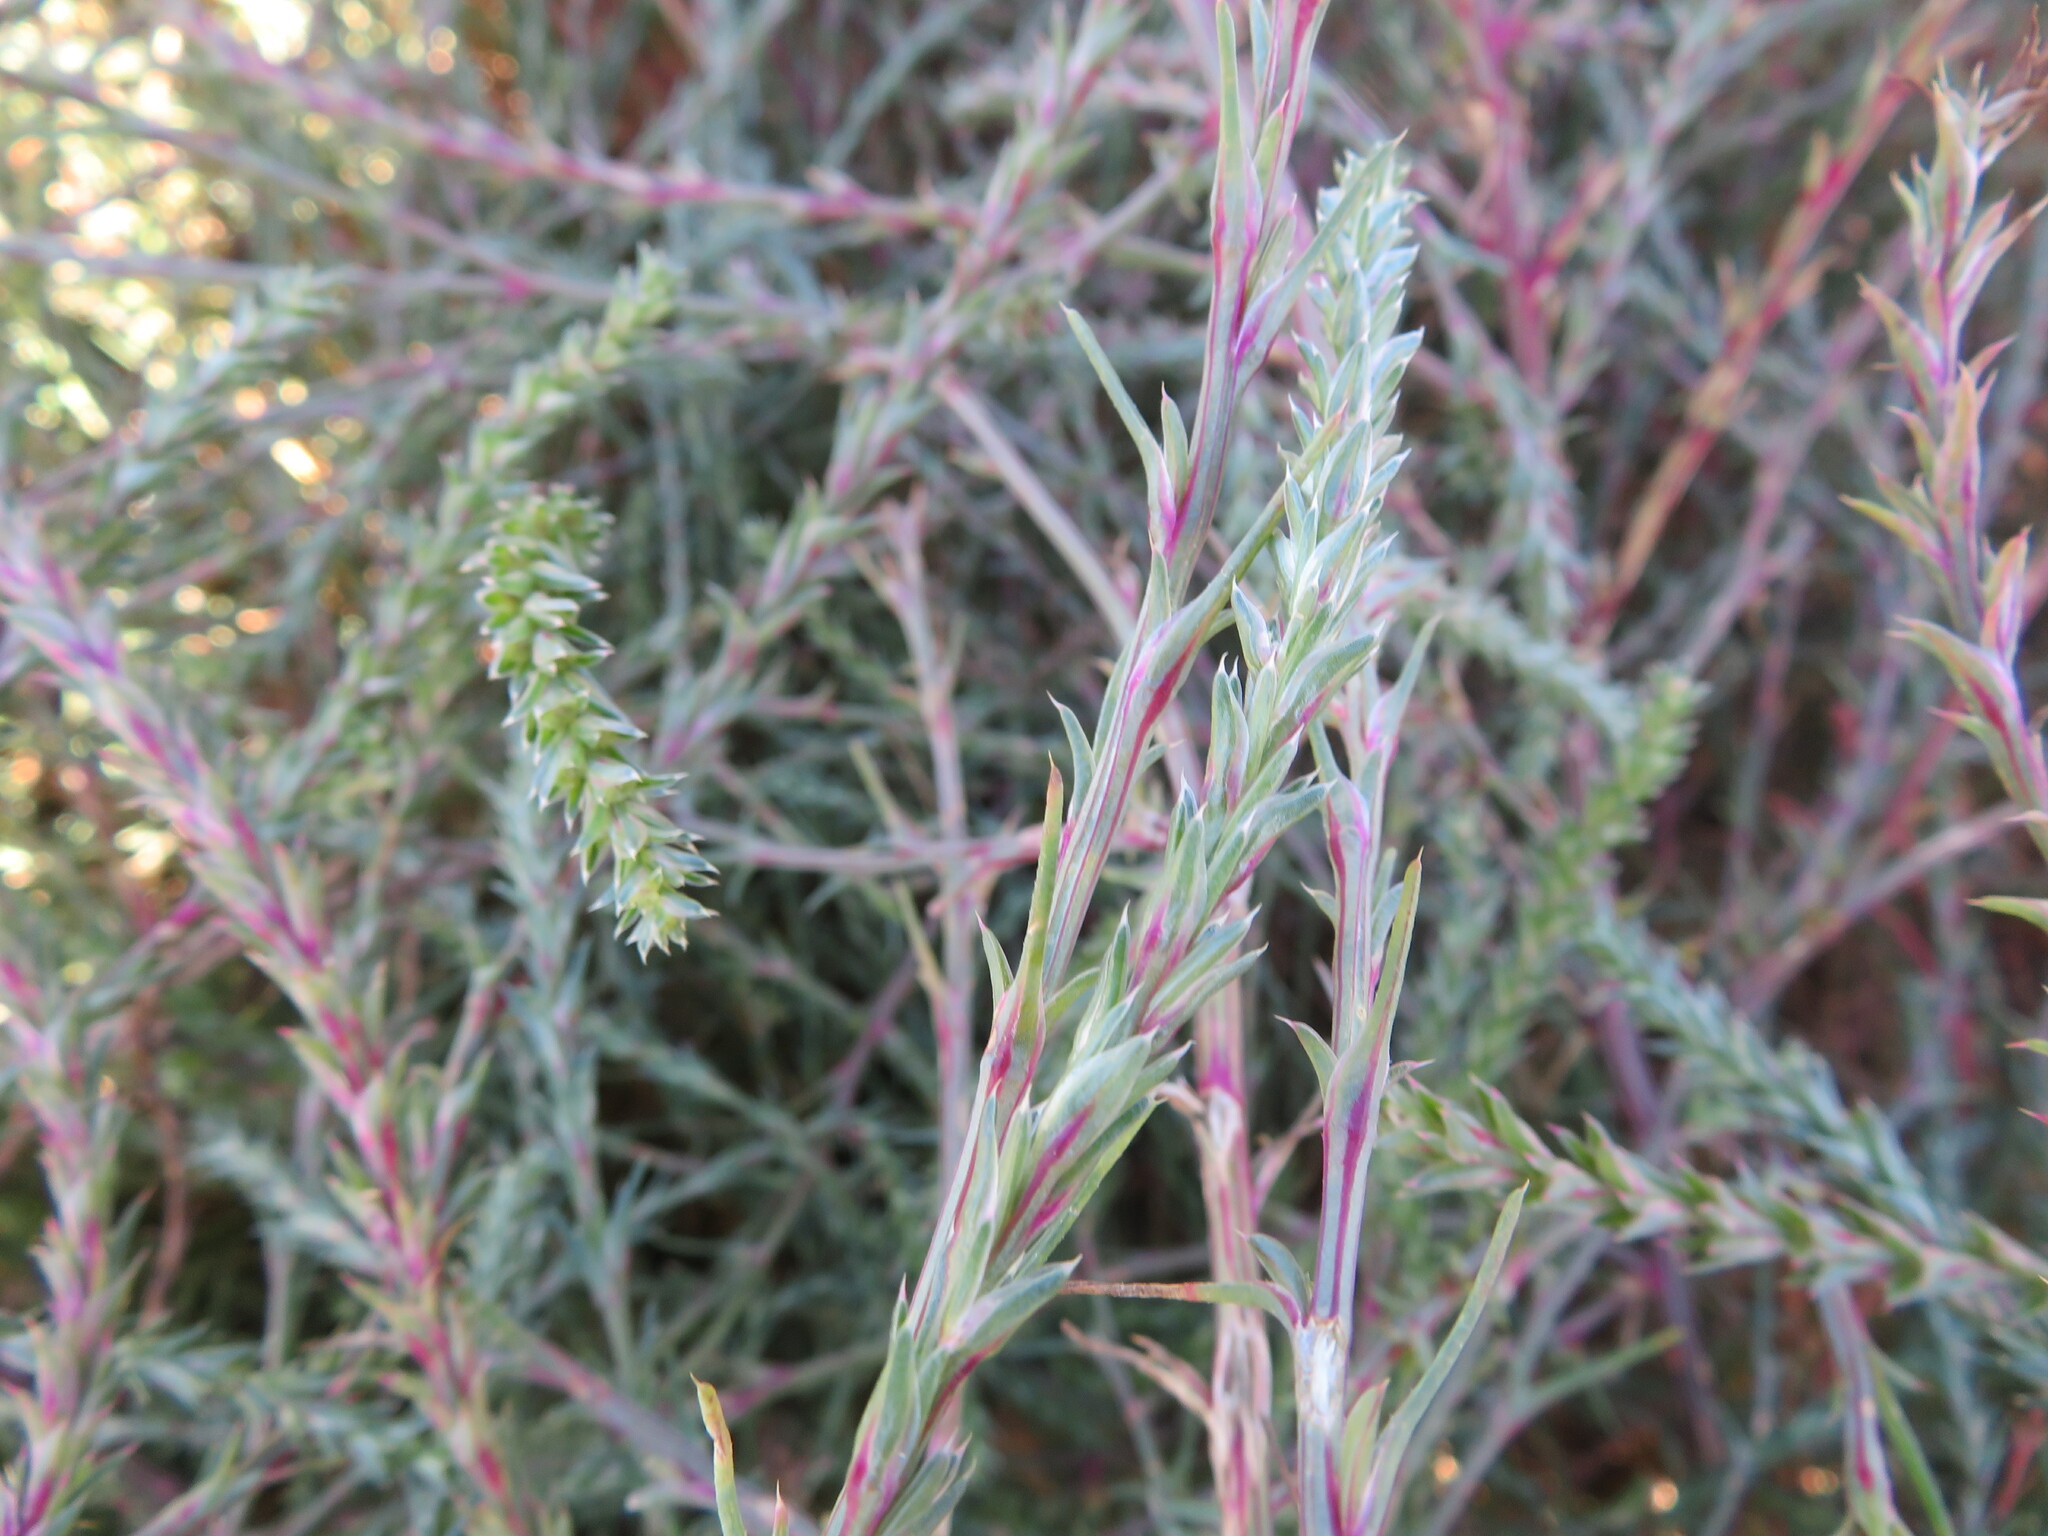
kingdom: Plantae
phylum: Tracheophyta
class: Magnoliopsida
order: Caryophyllales
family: Amaranthaceae
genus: Salsola
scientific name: Salsola collina
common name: Tumbleweed
